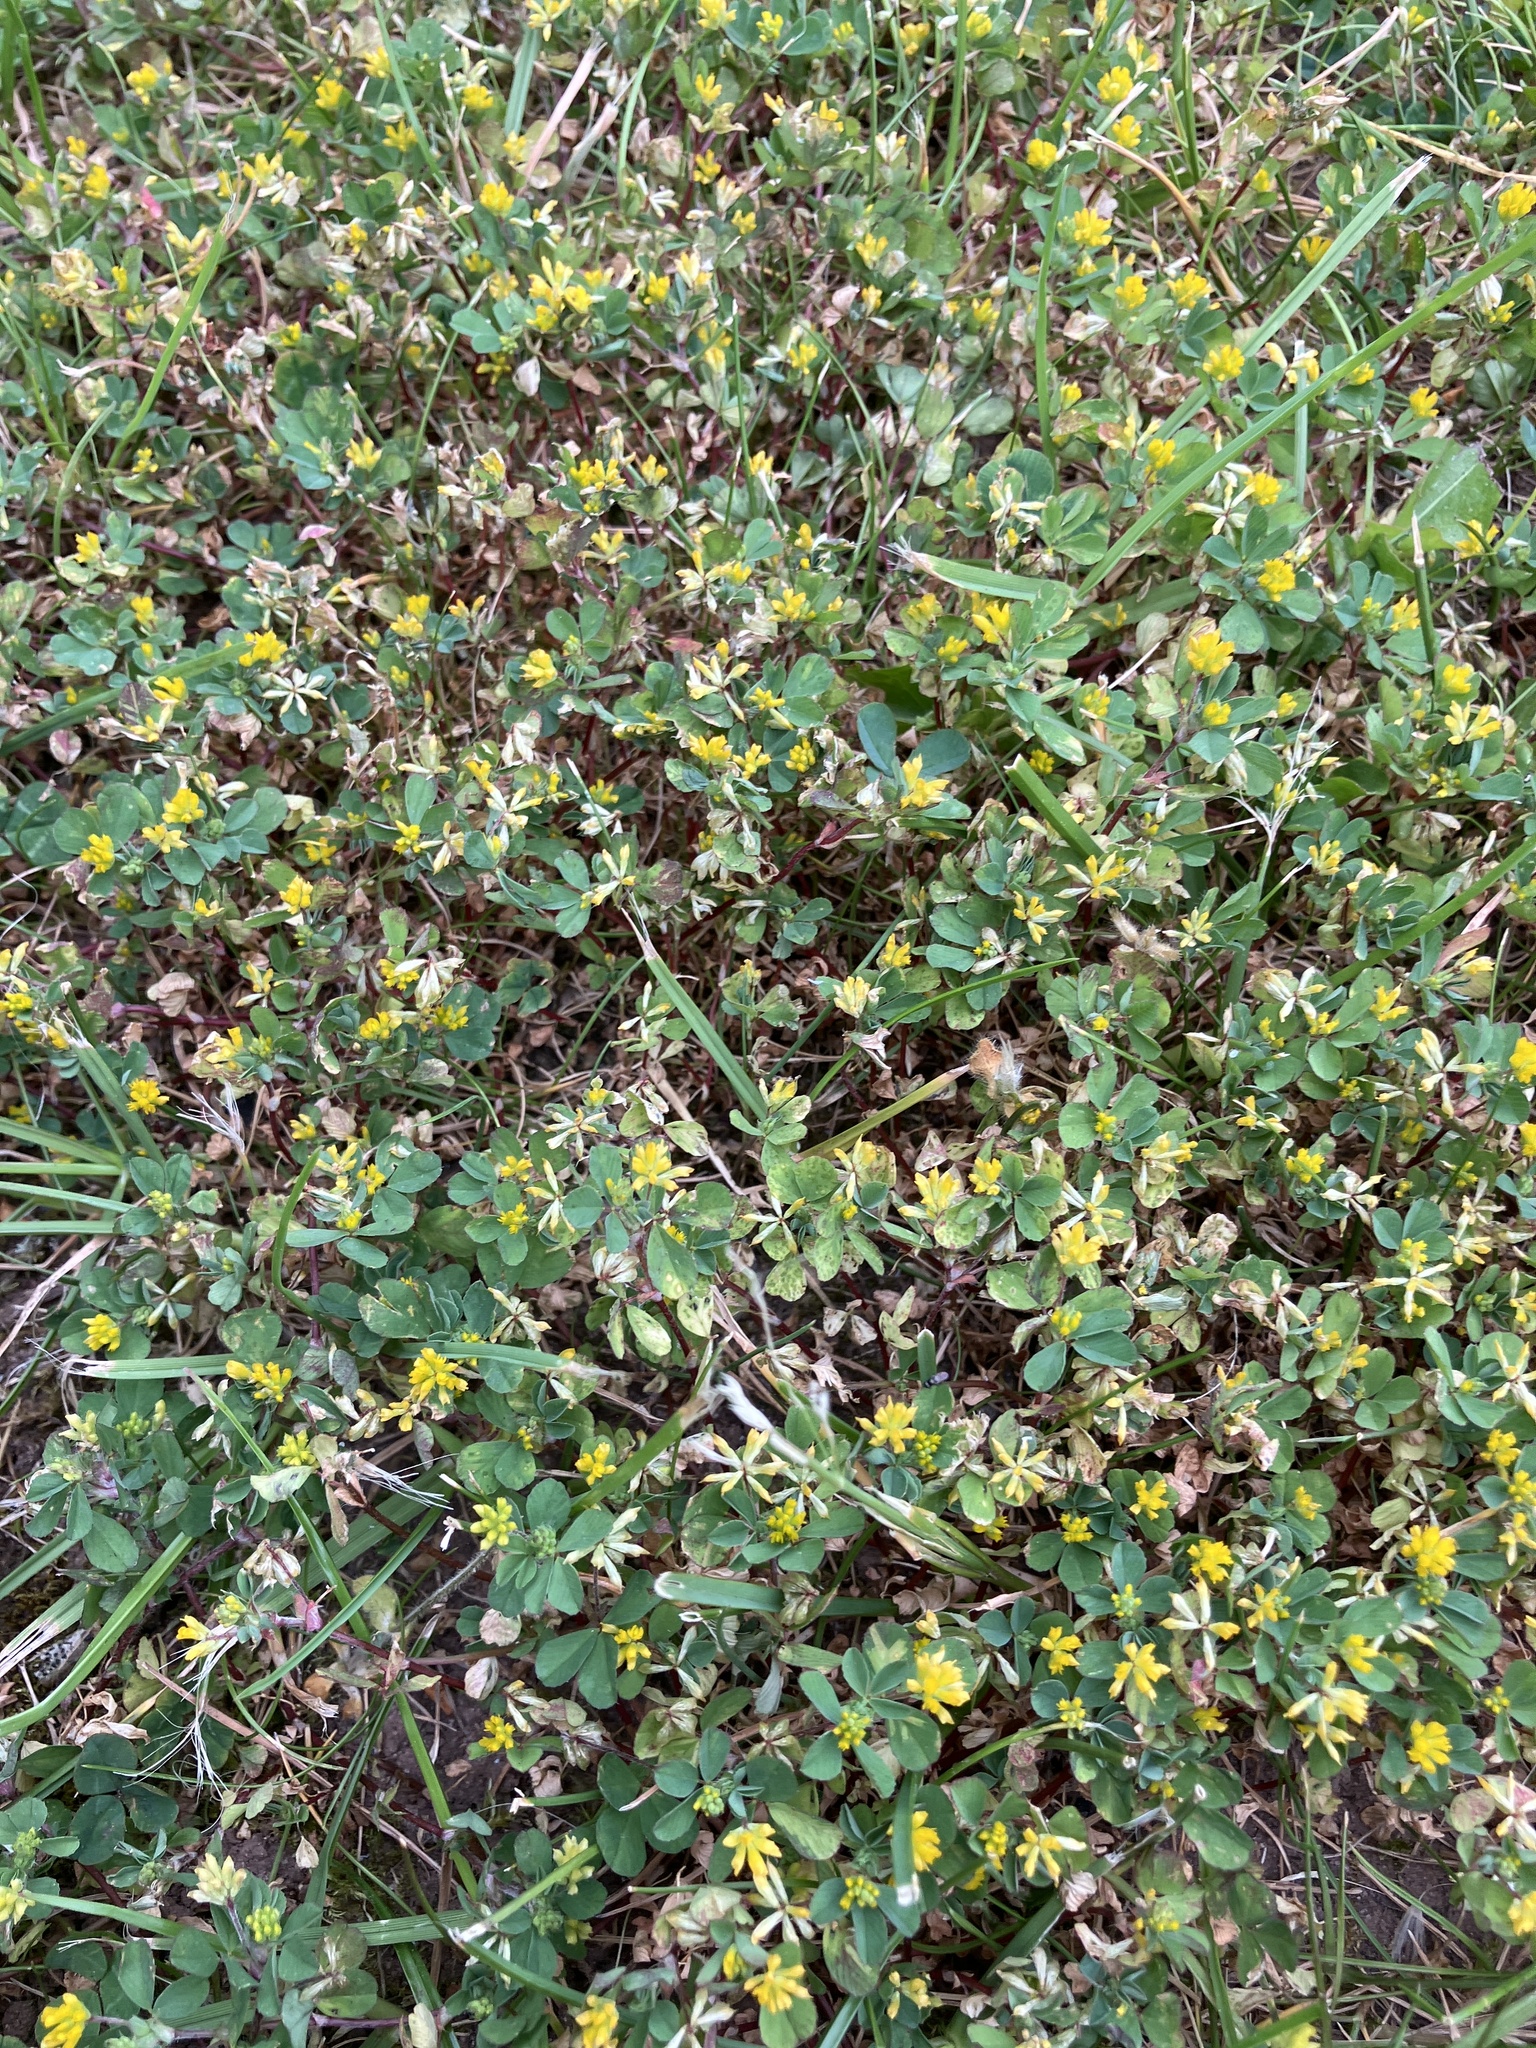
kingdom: Plantae
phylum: Tracheophyta
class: Magnoliopsida
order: Fabales
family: Fabaceae
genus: Trifolium
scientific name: Trifolium dubium
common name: Suckling clover
